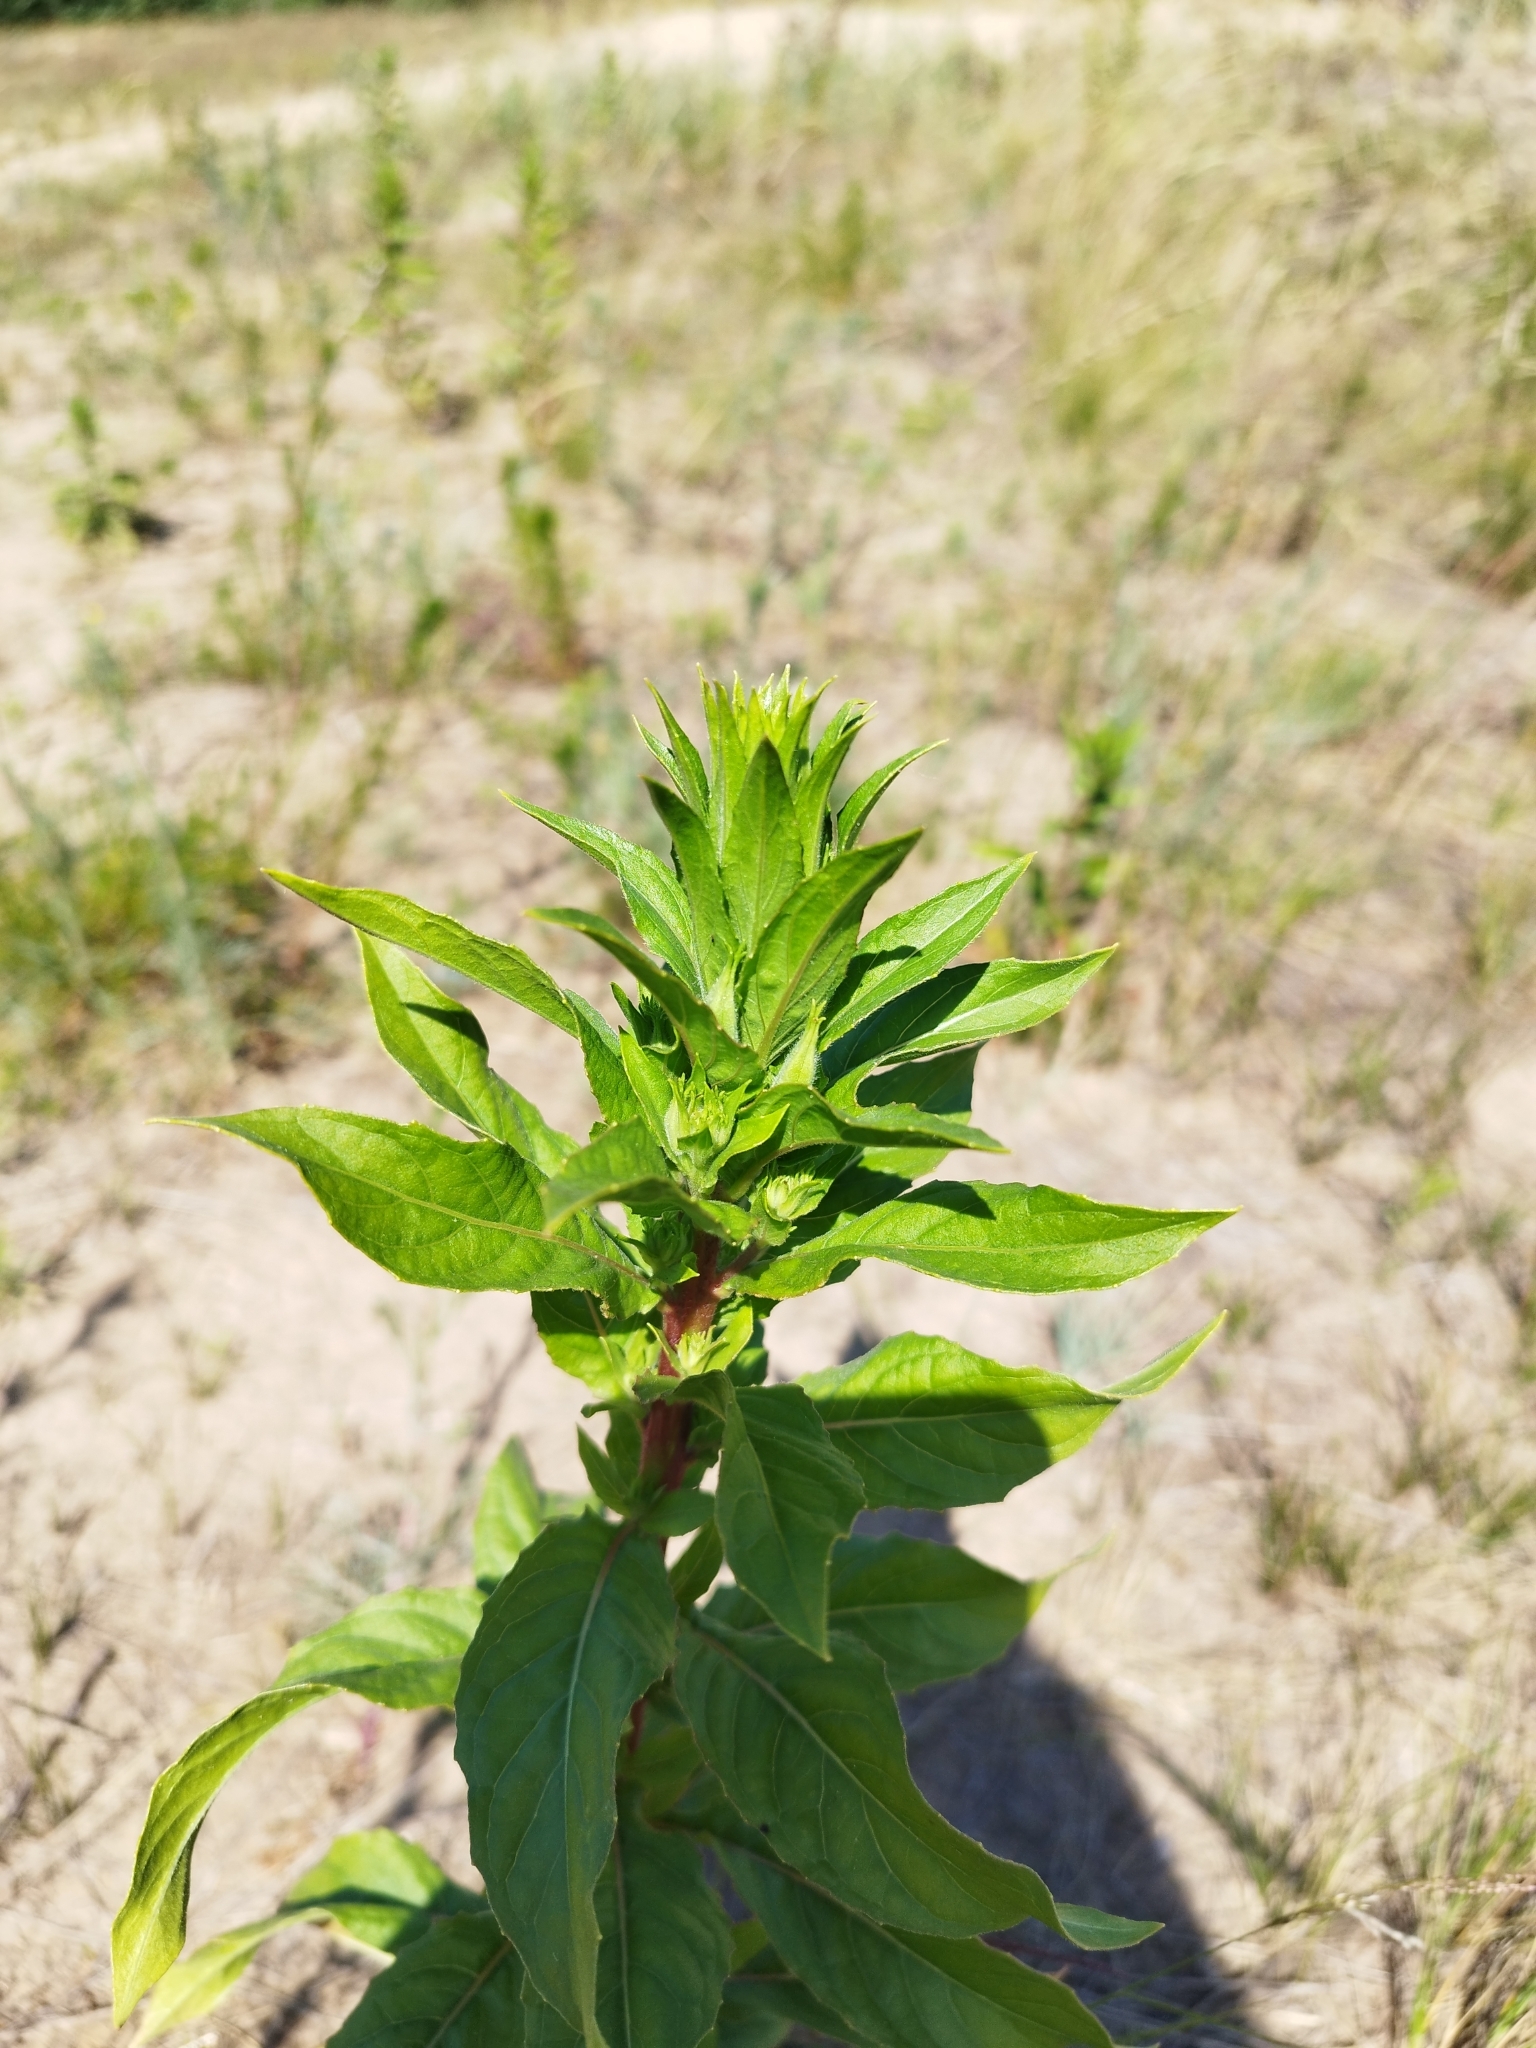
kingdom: Plantae
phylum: Tracheophyta
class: Magnoliopsida
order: Myrtales
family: Onagraceae
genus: Oenothera
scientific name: Oenothera rubricaulis
